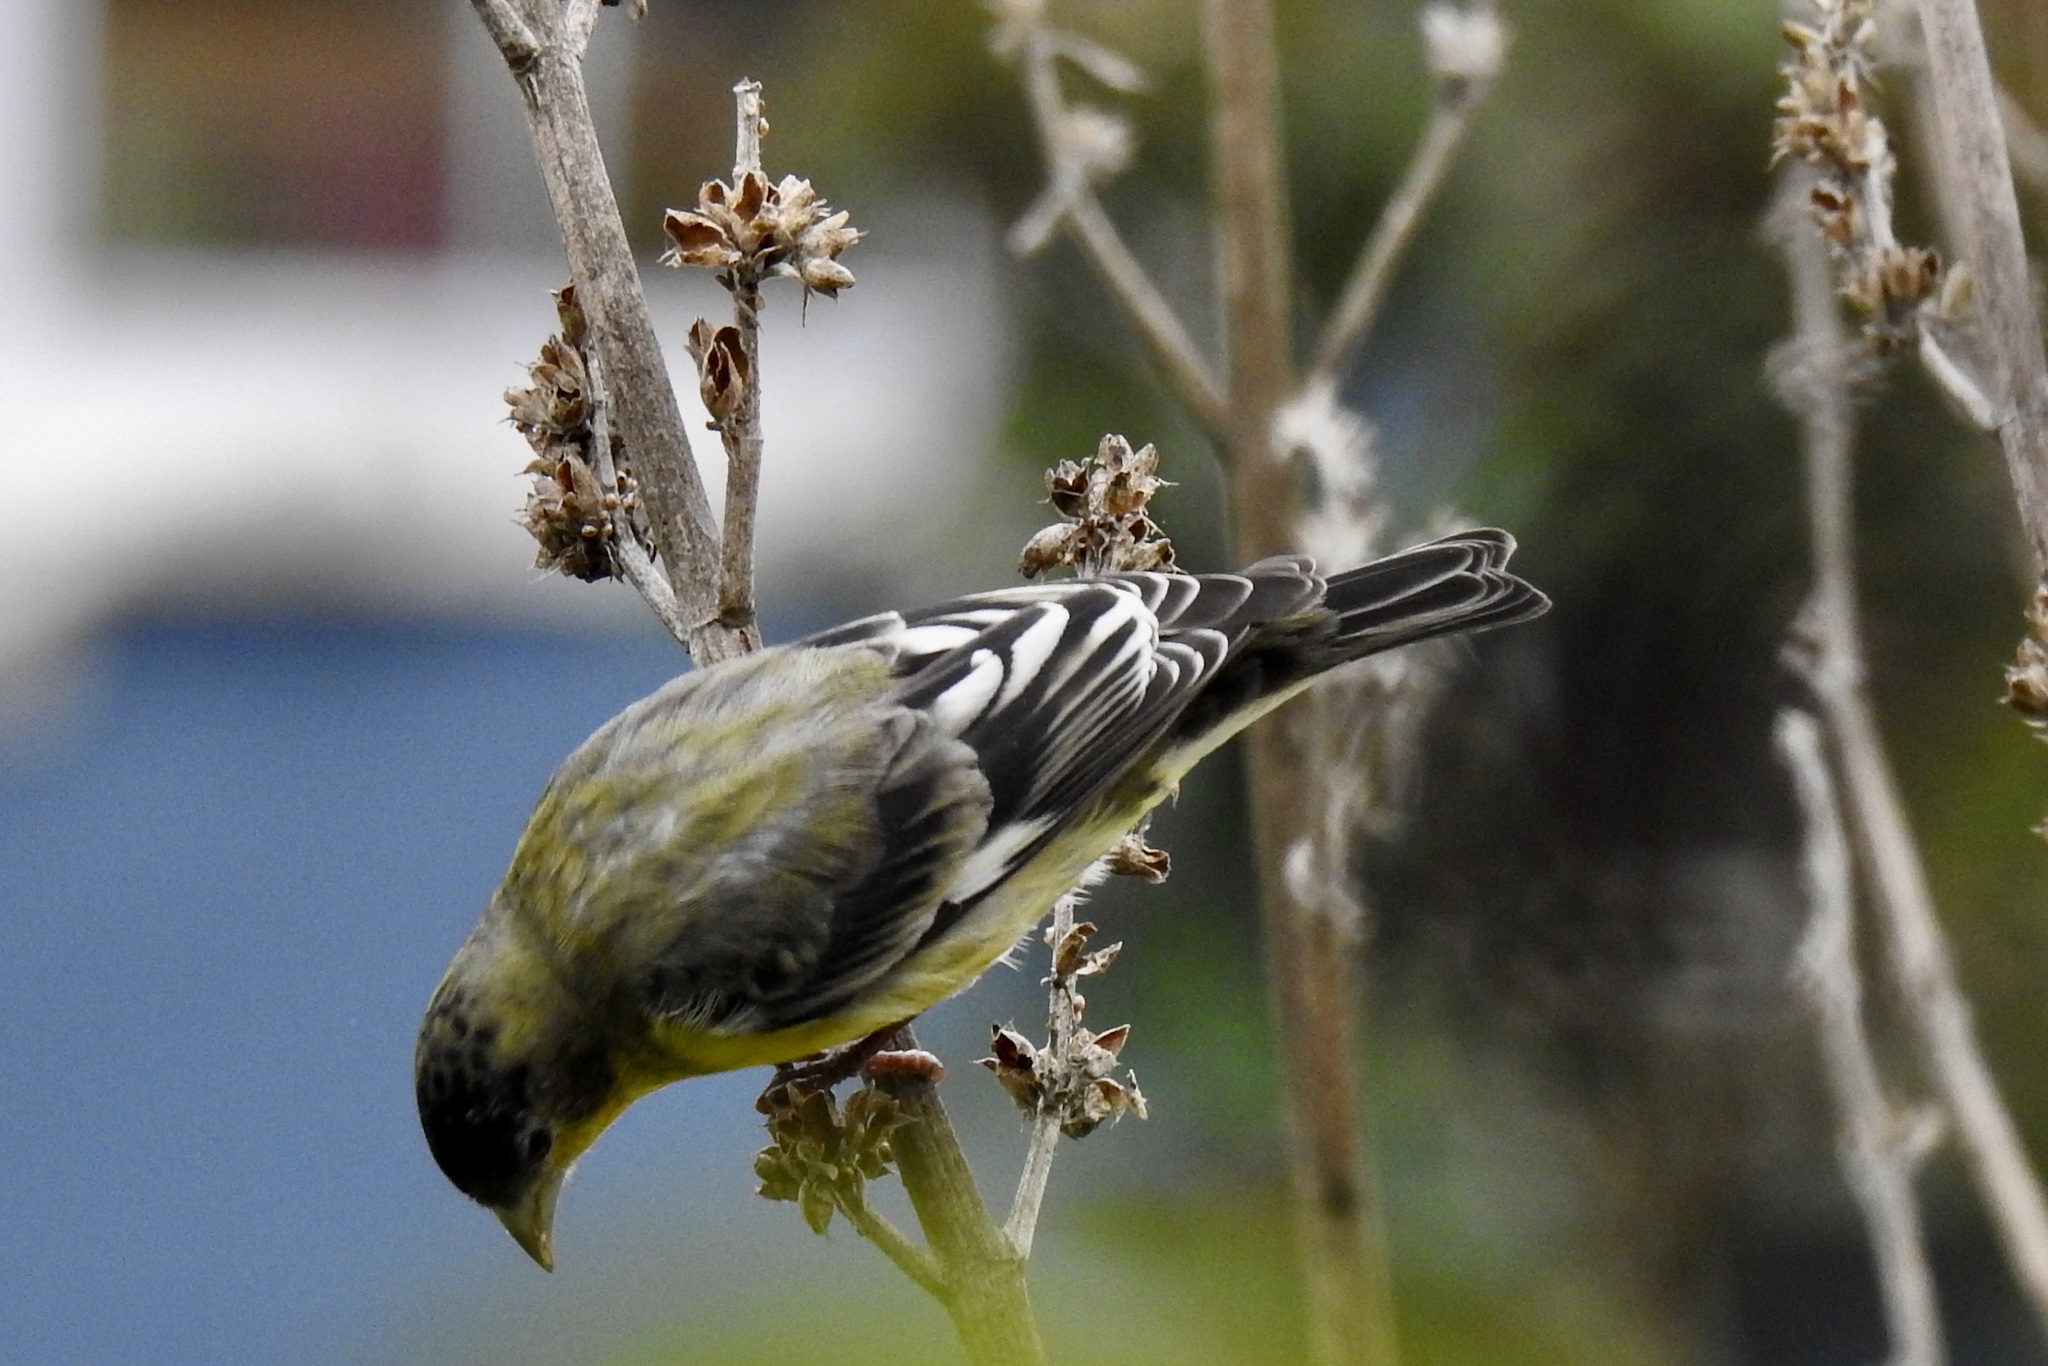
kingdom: Animalia
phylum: Chordata
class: Aves
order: Passeriformes
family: Fringillidae
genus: Spinus
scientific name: Spinus psaltria
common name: Lesser goldfinch
